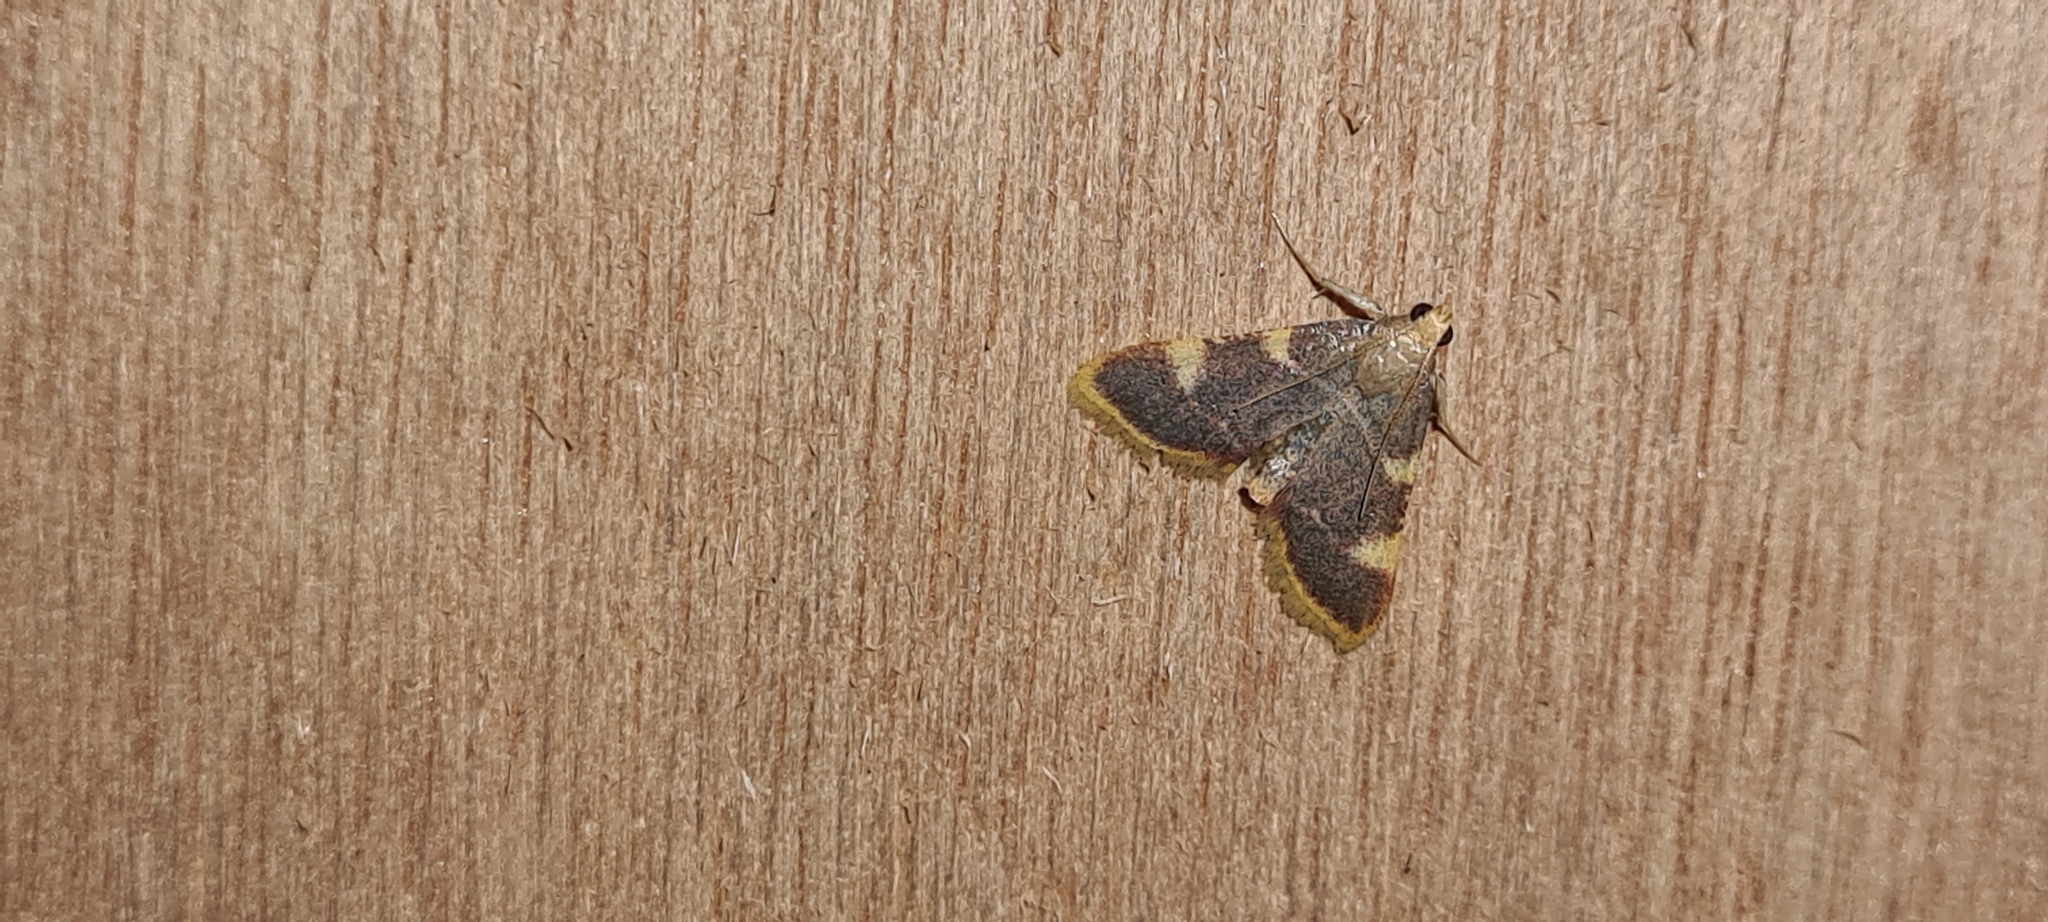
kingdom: Animalia
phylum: Arthropoda
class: Insecta
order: Lepidoptera
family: Pyralidae
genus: Hypsopygia
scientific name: Hypsopygia costalis
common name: Gold triangle
